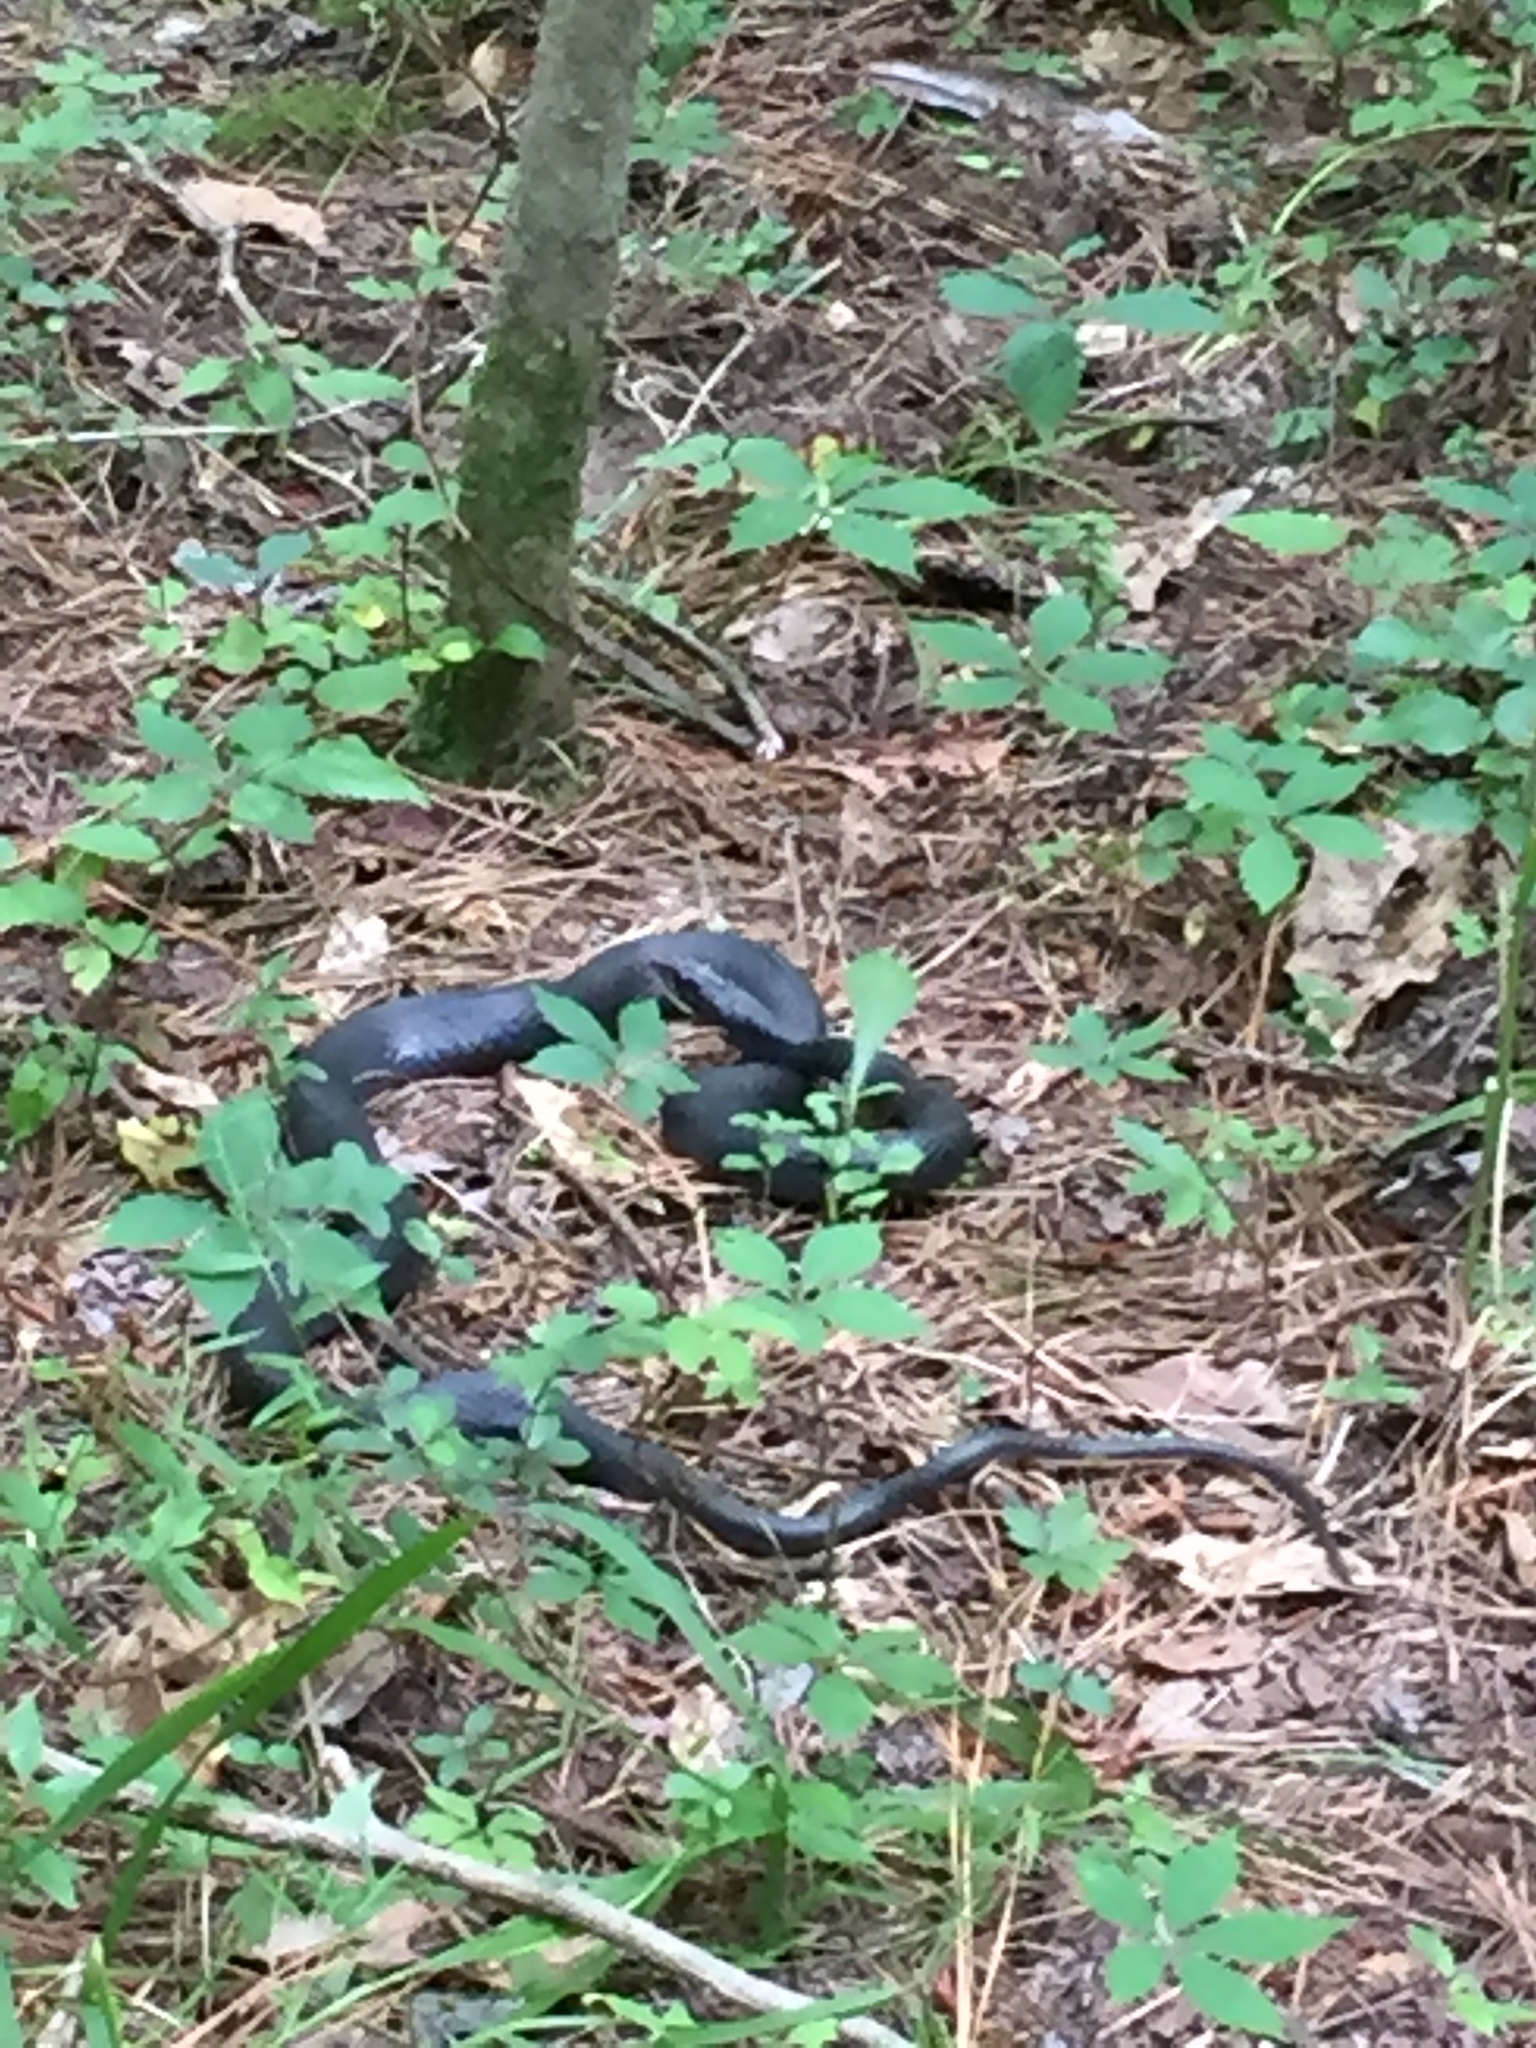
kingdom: Animalia
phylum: Chordata
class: Squamata
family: Colubridae
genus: Coluber
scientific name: Coluber constrictor
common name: Eastern racer
